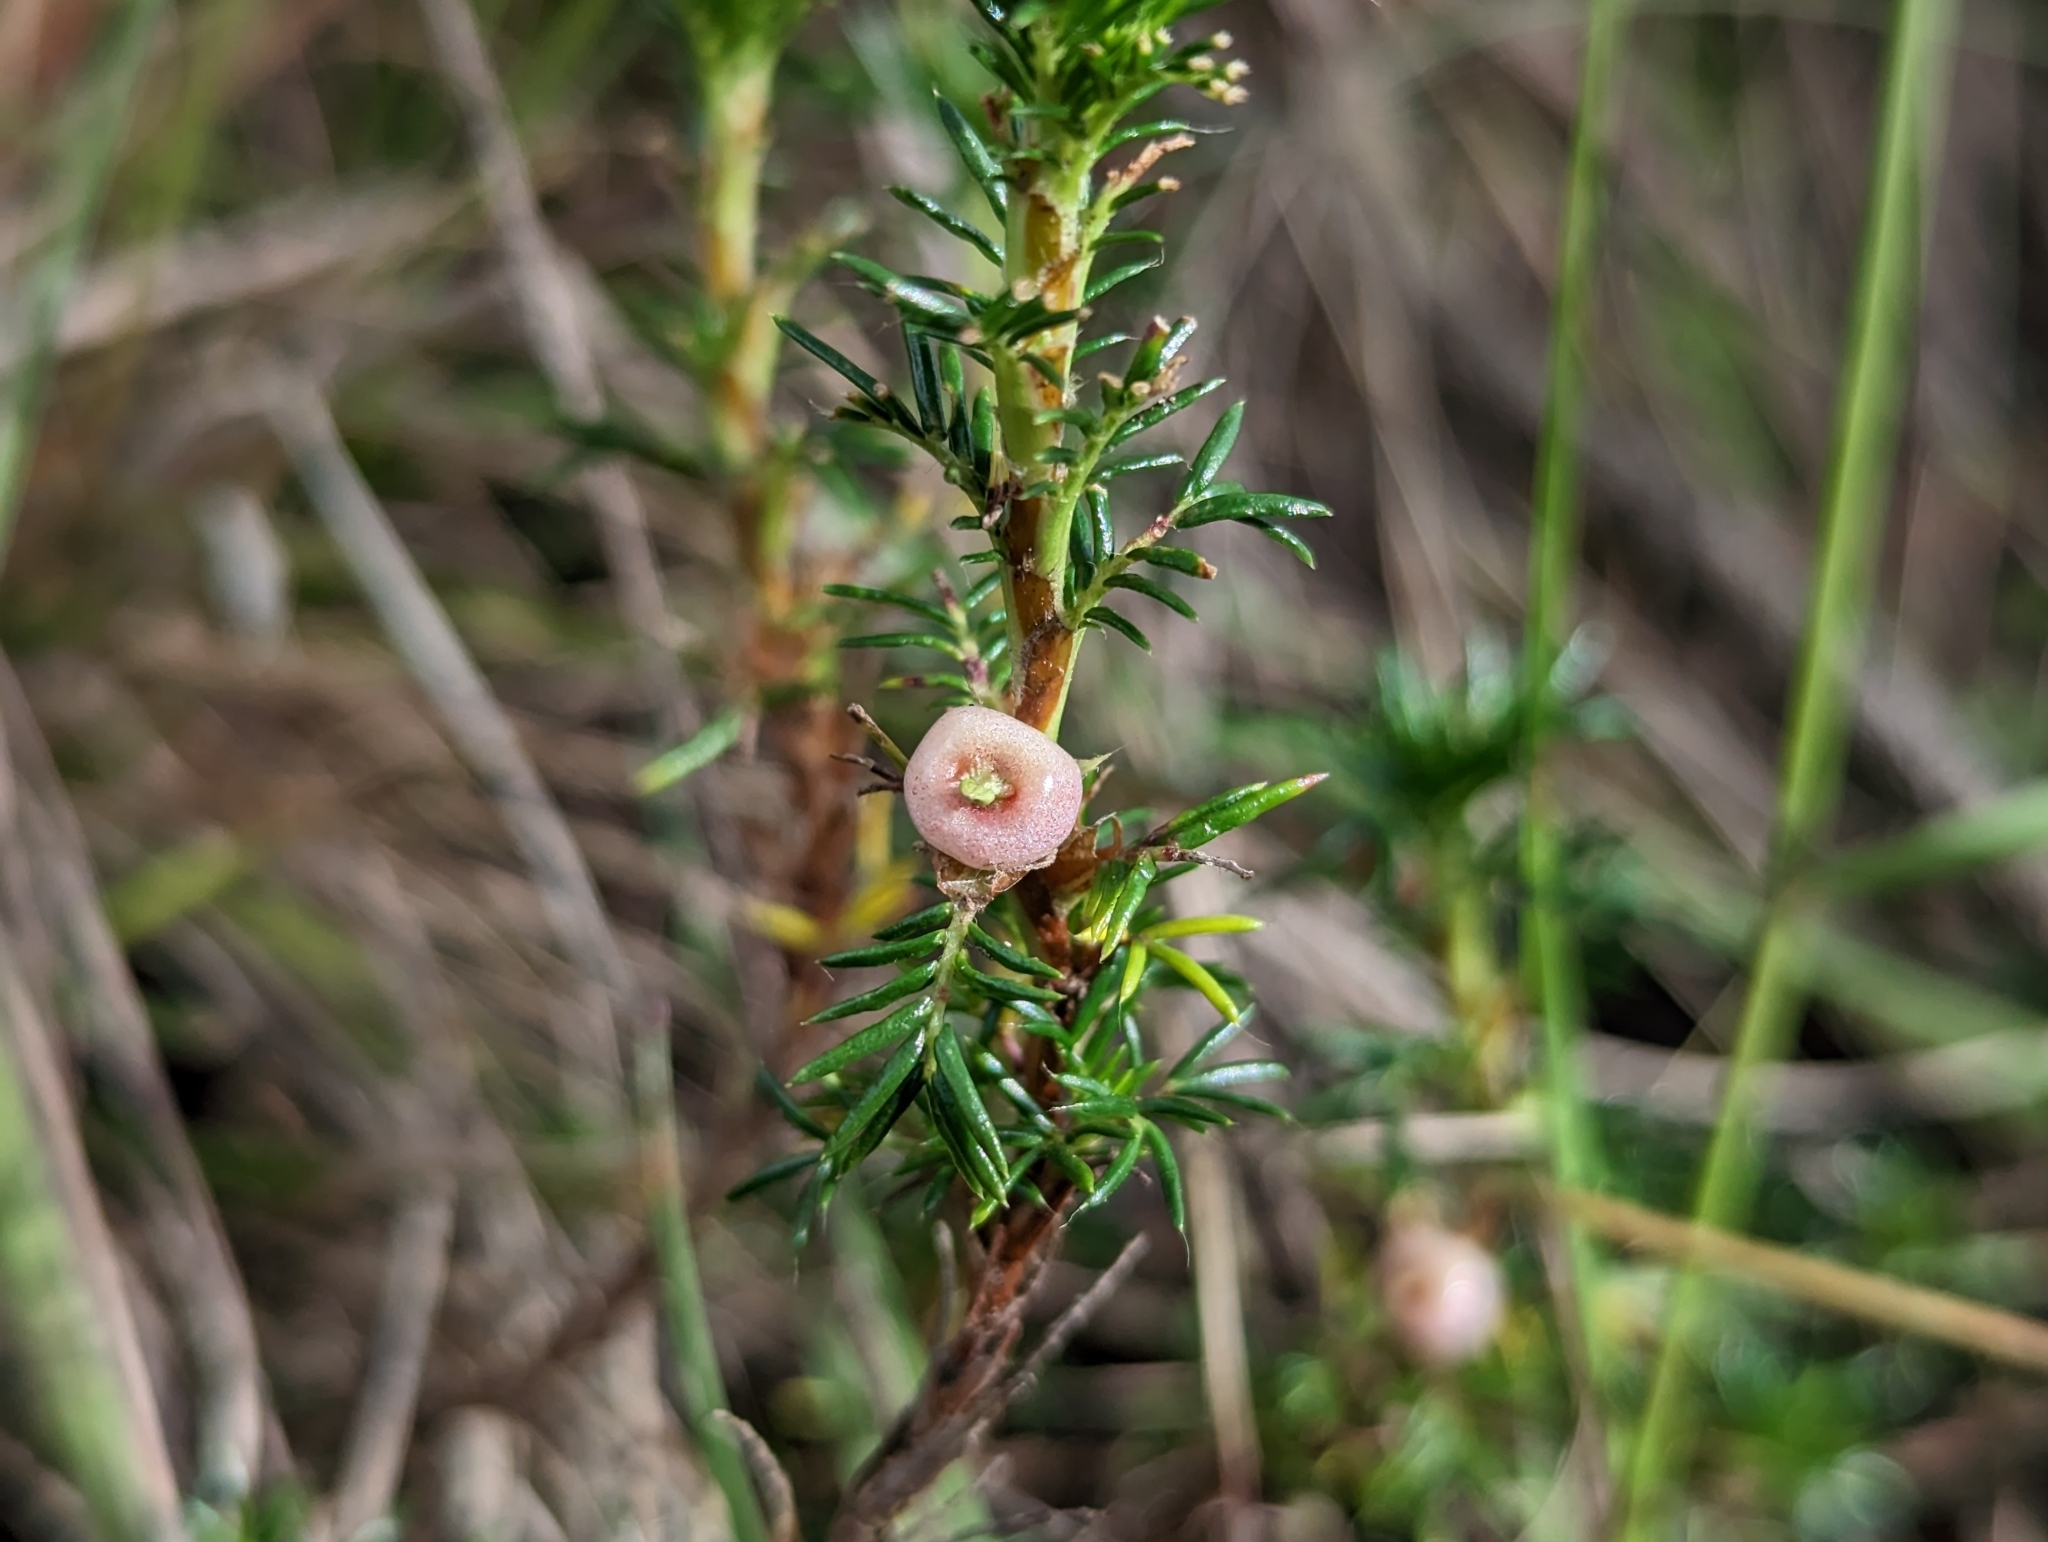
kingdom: Plantae
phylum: Tracheophyta
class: Magnoliopsida
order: Rosales
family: Rosaceae
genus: Margyricarpus
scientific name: Margyricarpus pinnatus
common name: Pearlfruit
